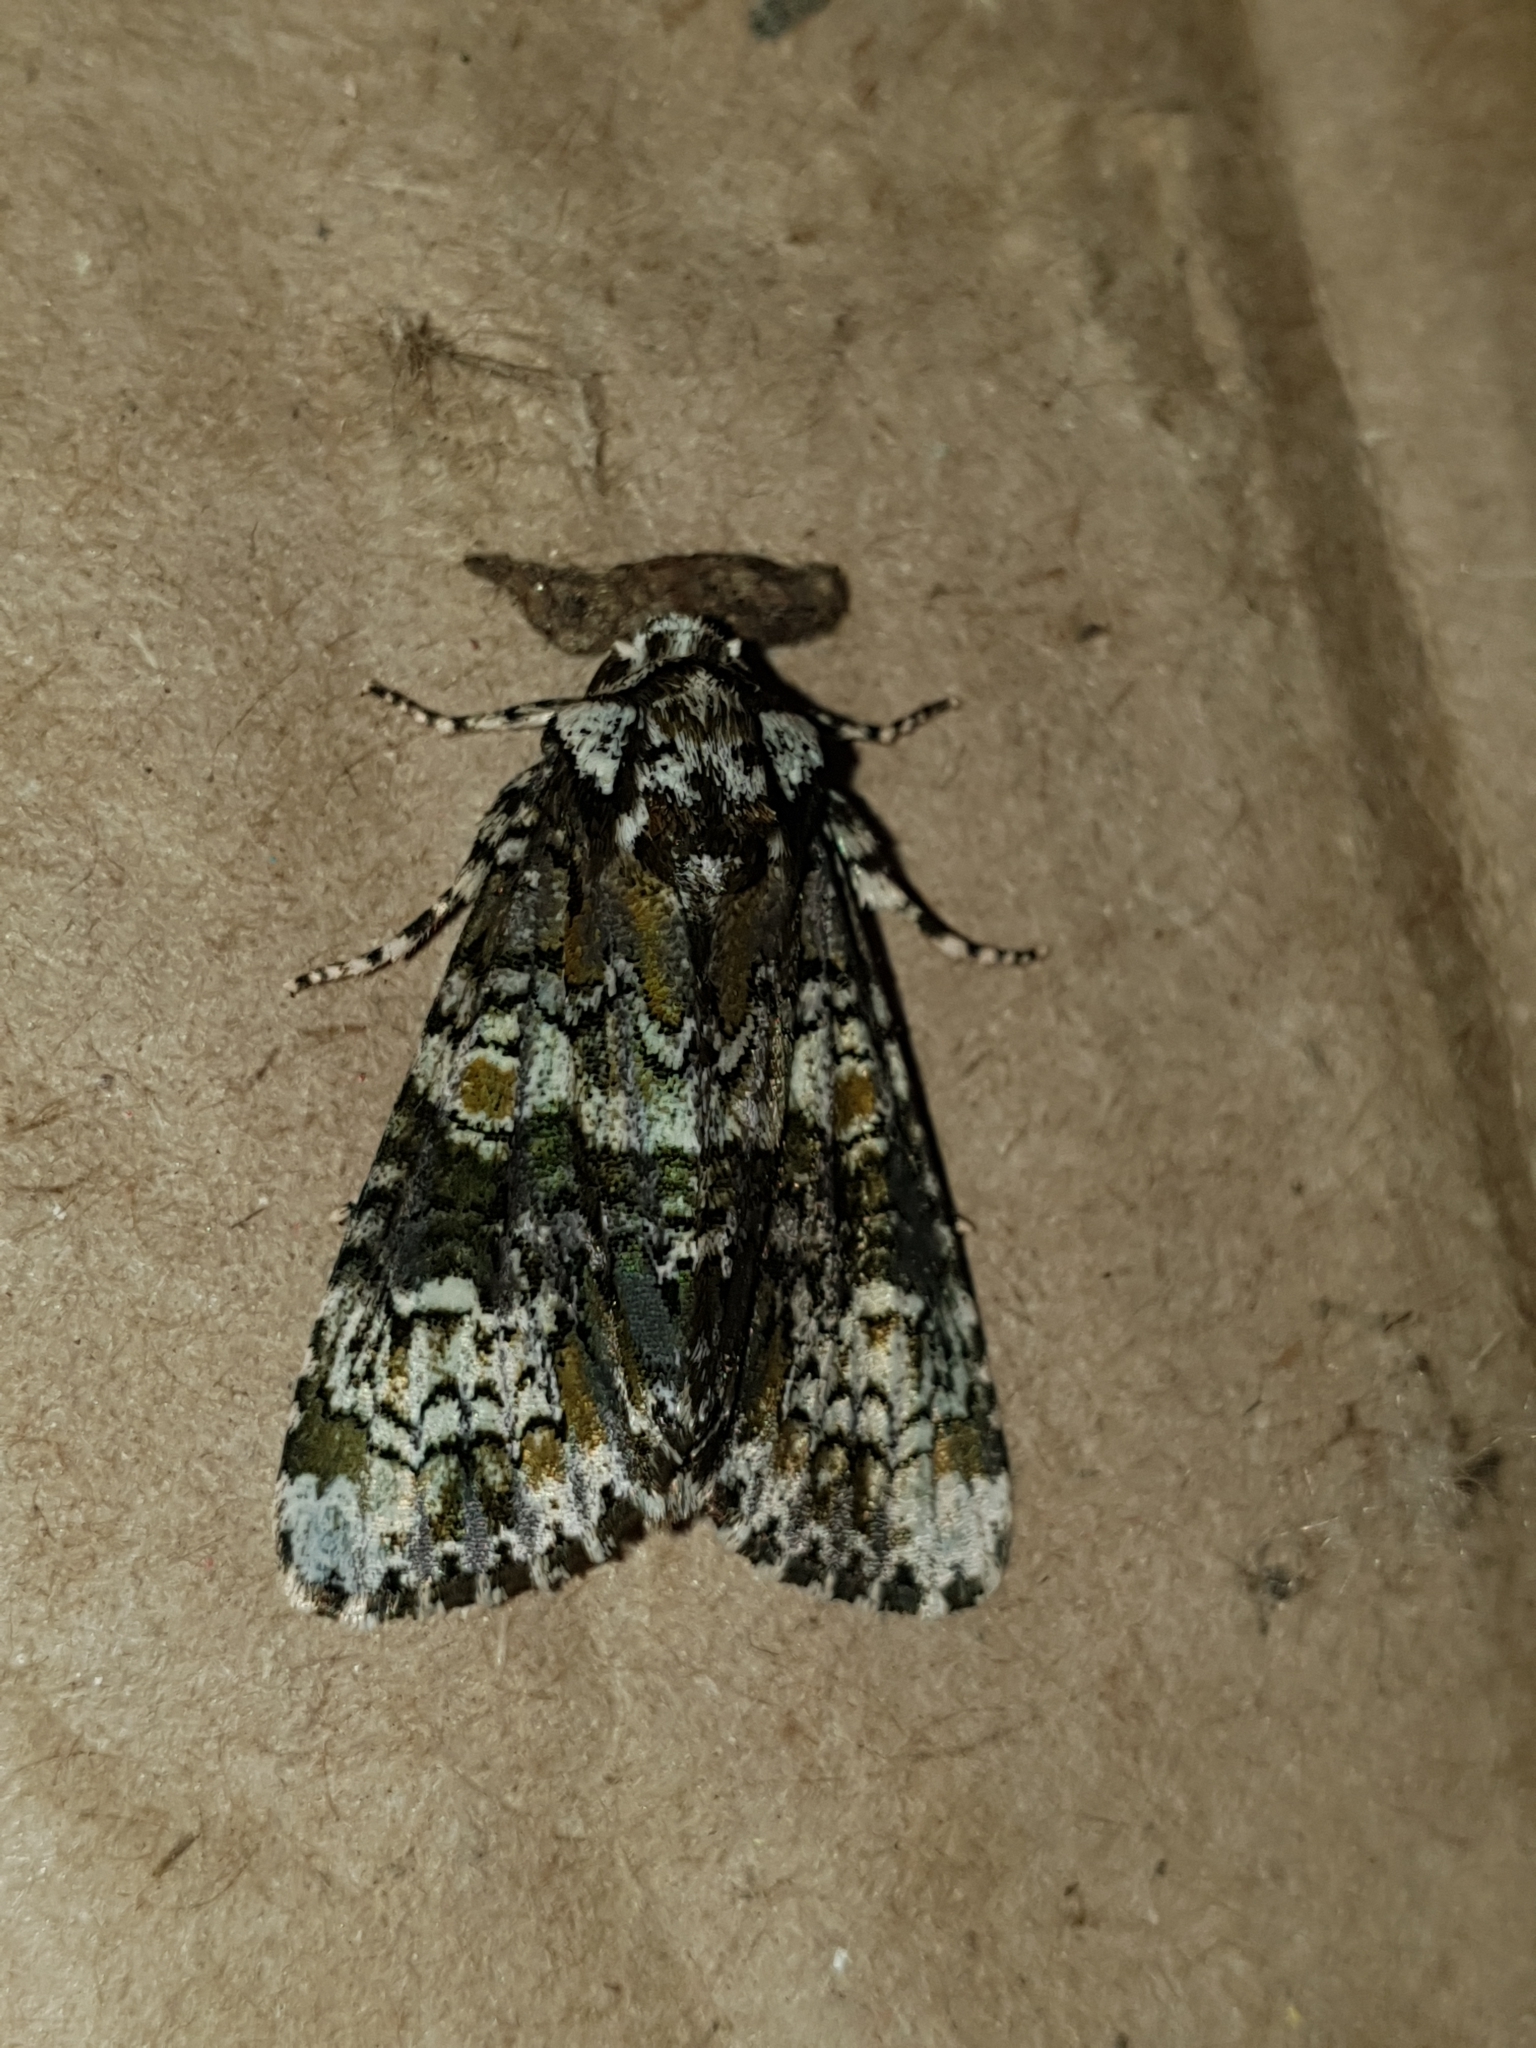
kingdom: Animalia
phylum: Arthropoda
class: Insecta
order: Lepidoptera
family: Noctuidae
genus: Craniophora
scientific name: Craniophora ligustri
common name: Coronet
